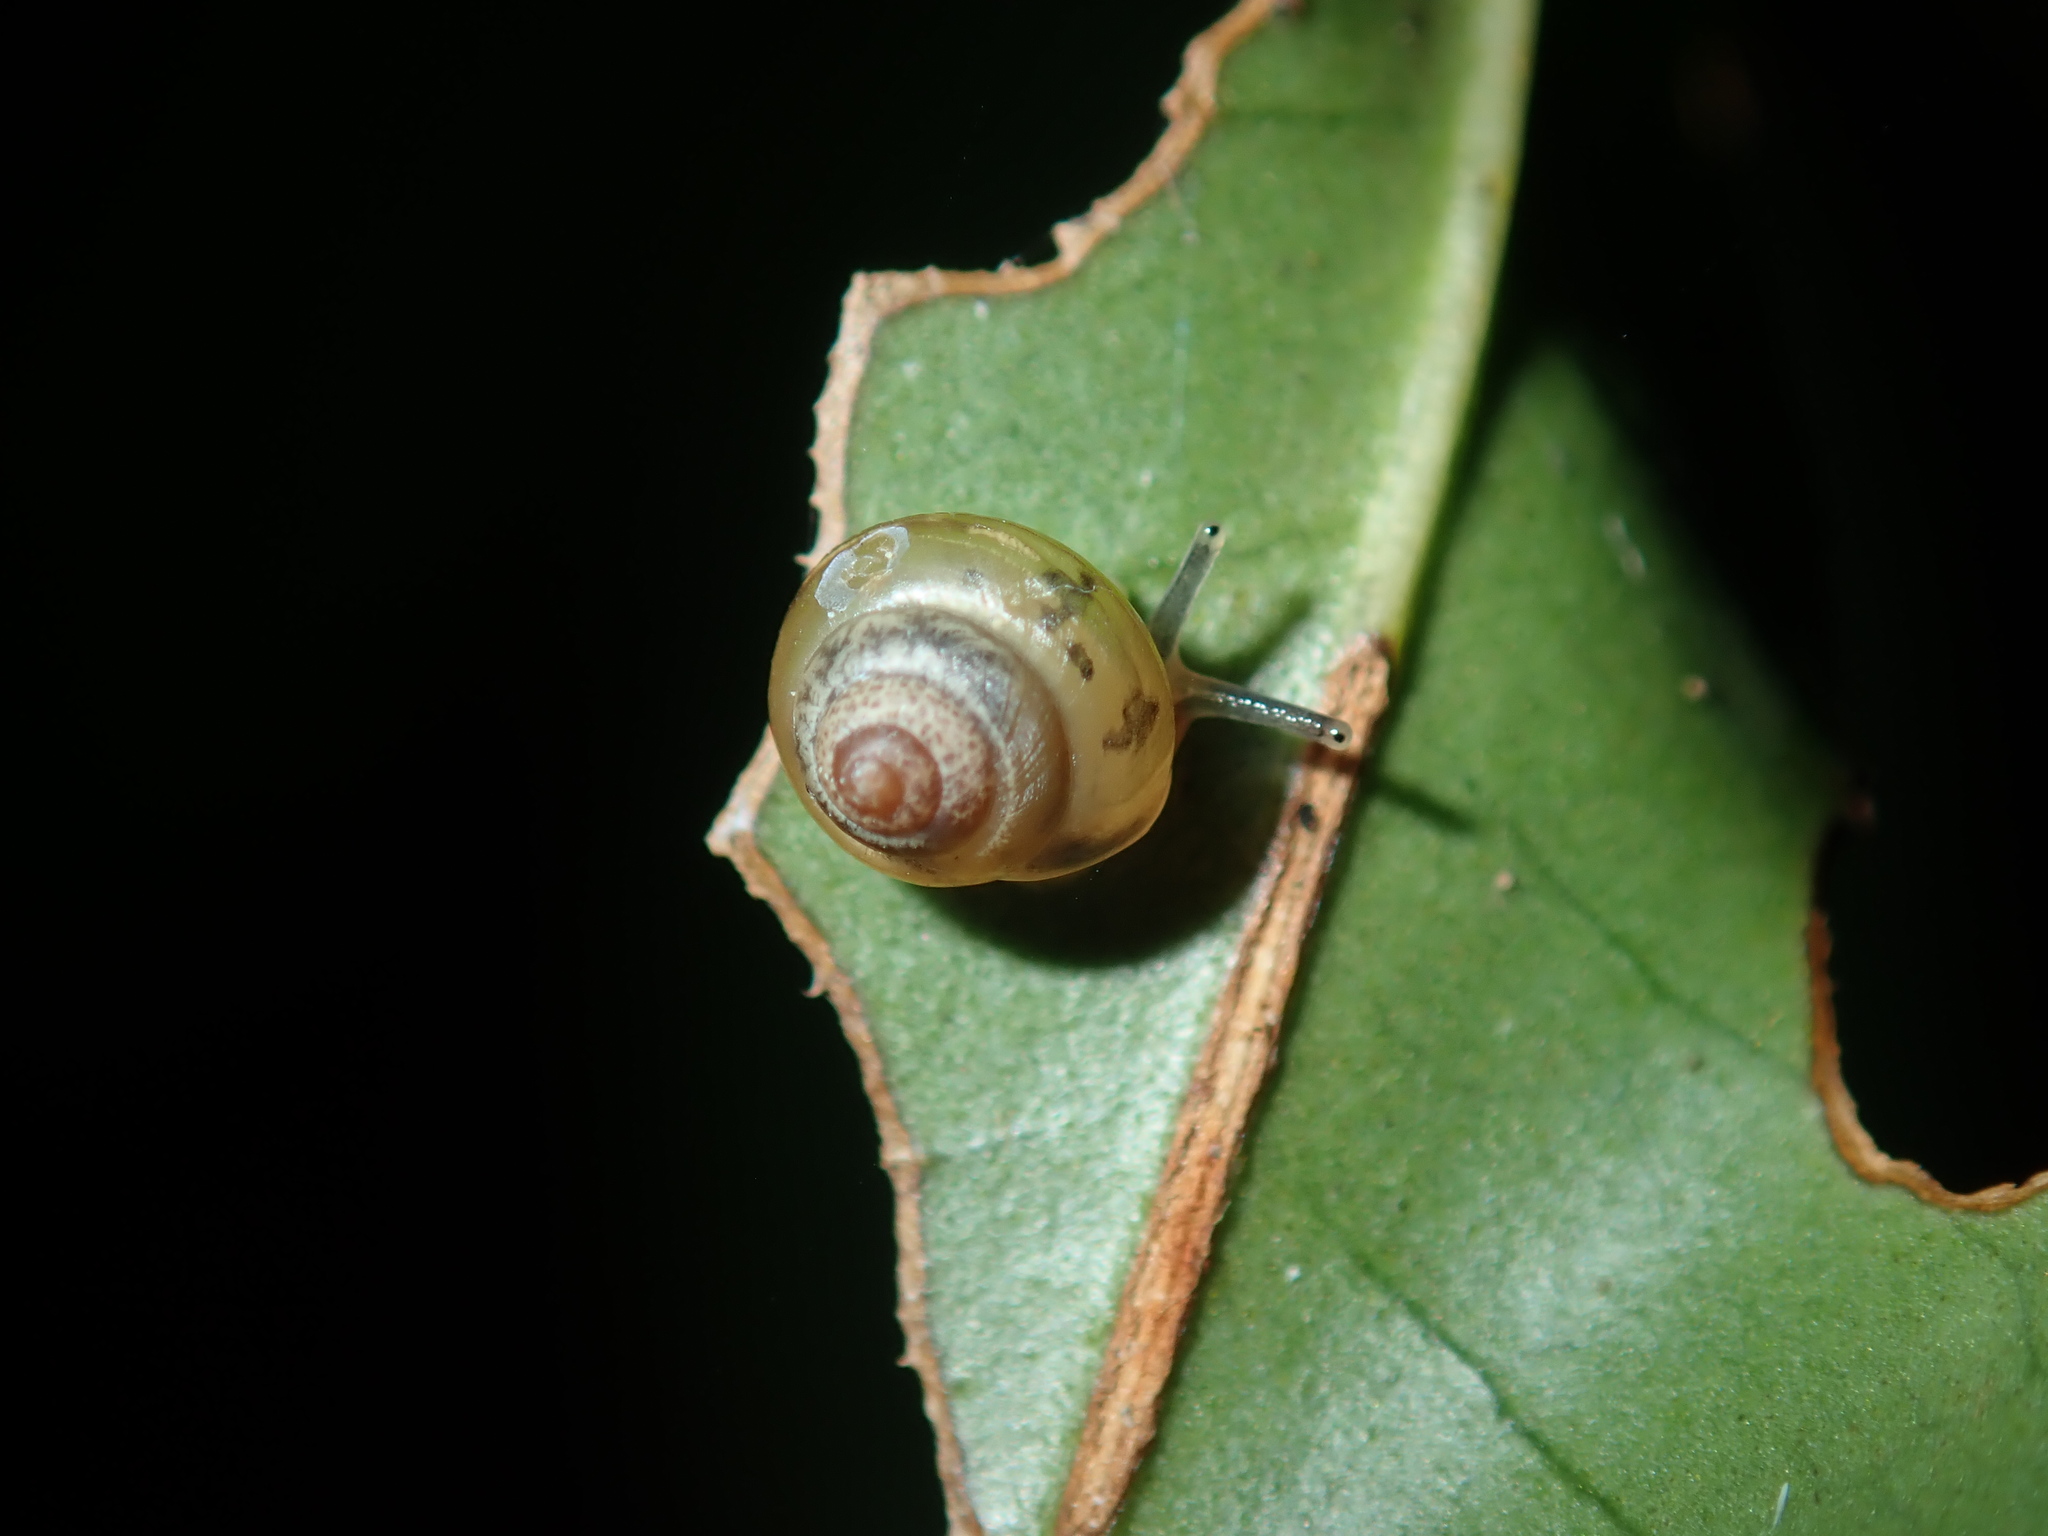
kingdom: Animalia
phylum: Mollusca
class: Gastropoda
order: Stylommatophora
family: Euconulidae
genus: Coneuplecta
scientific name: Coneuplecta calculosa
